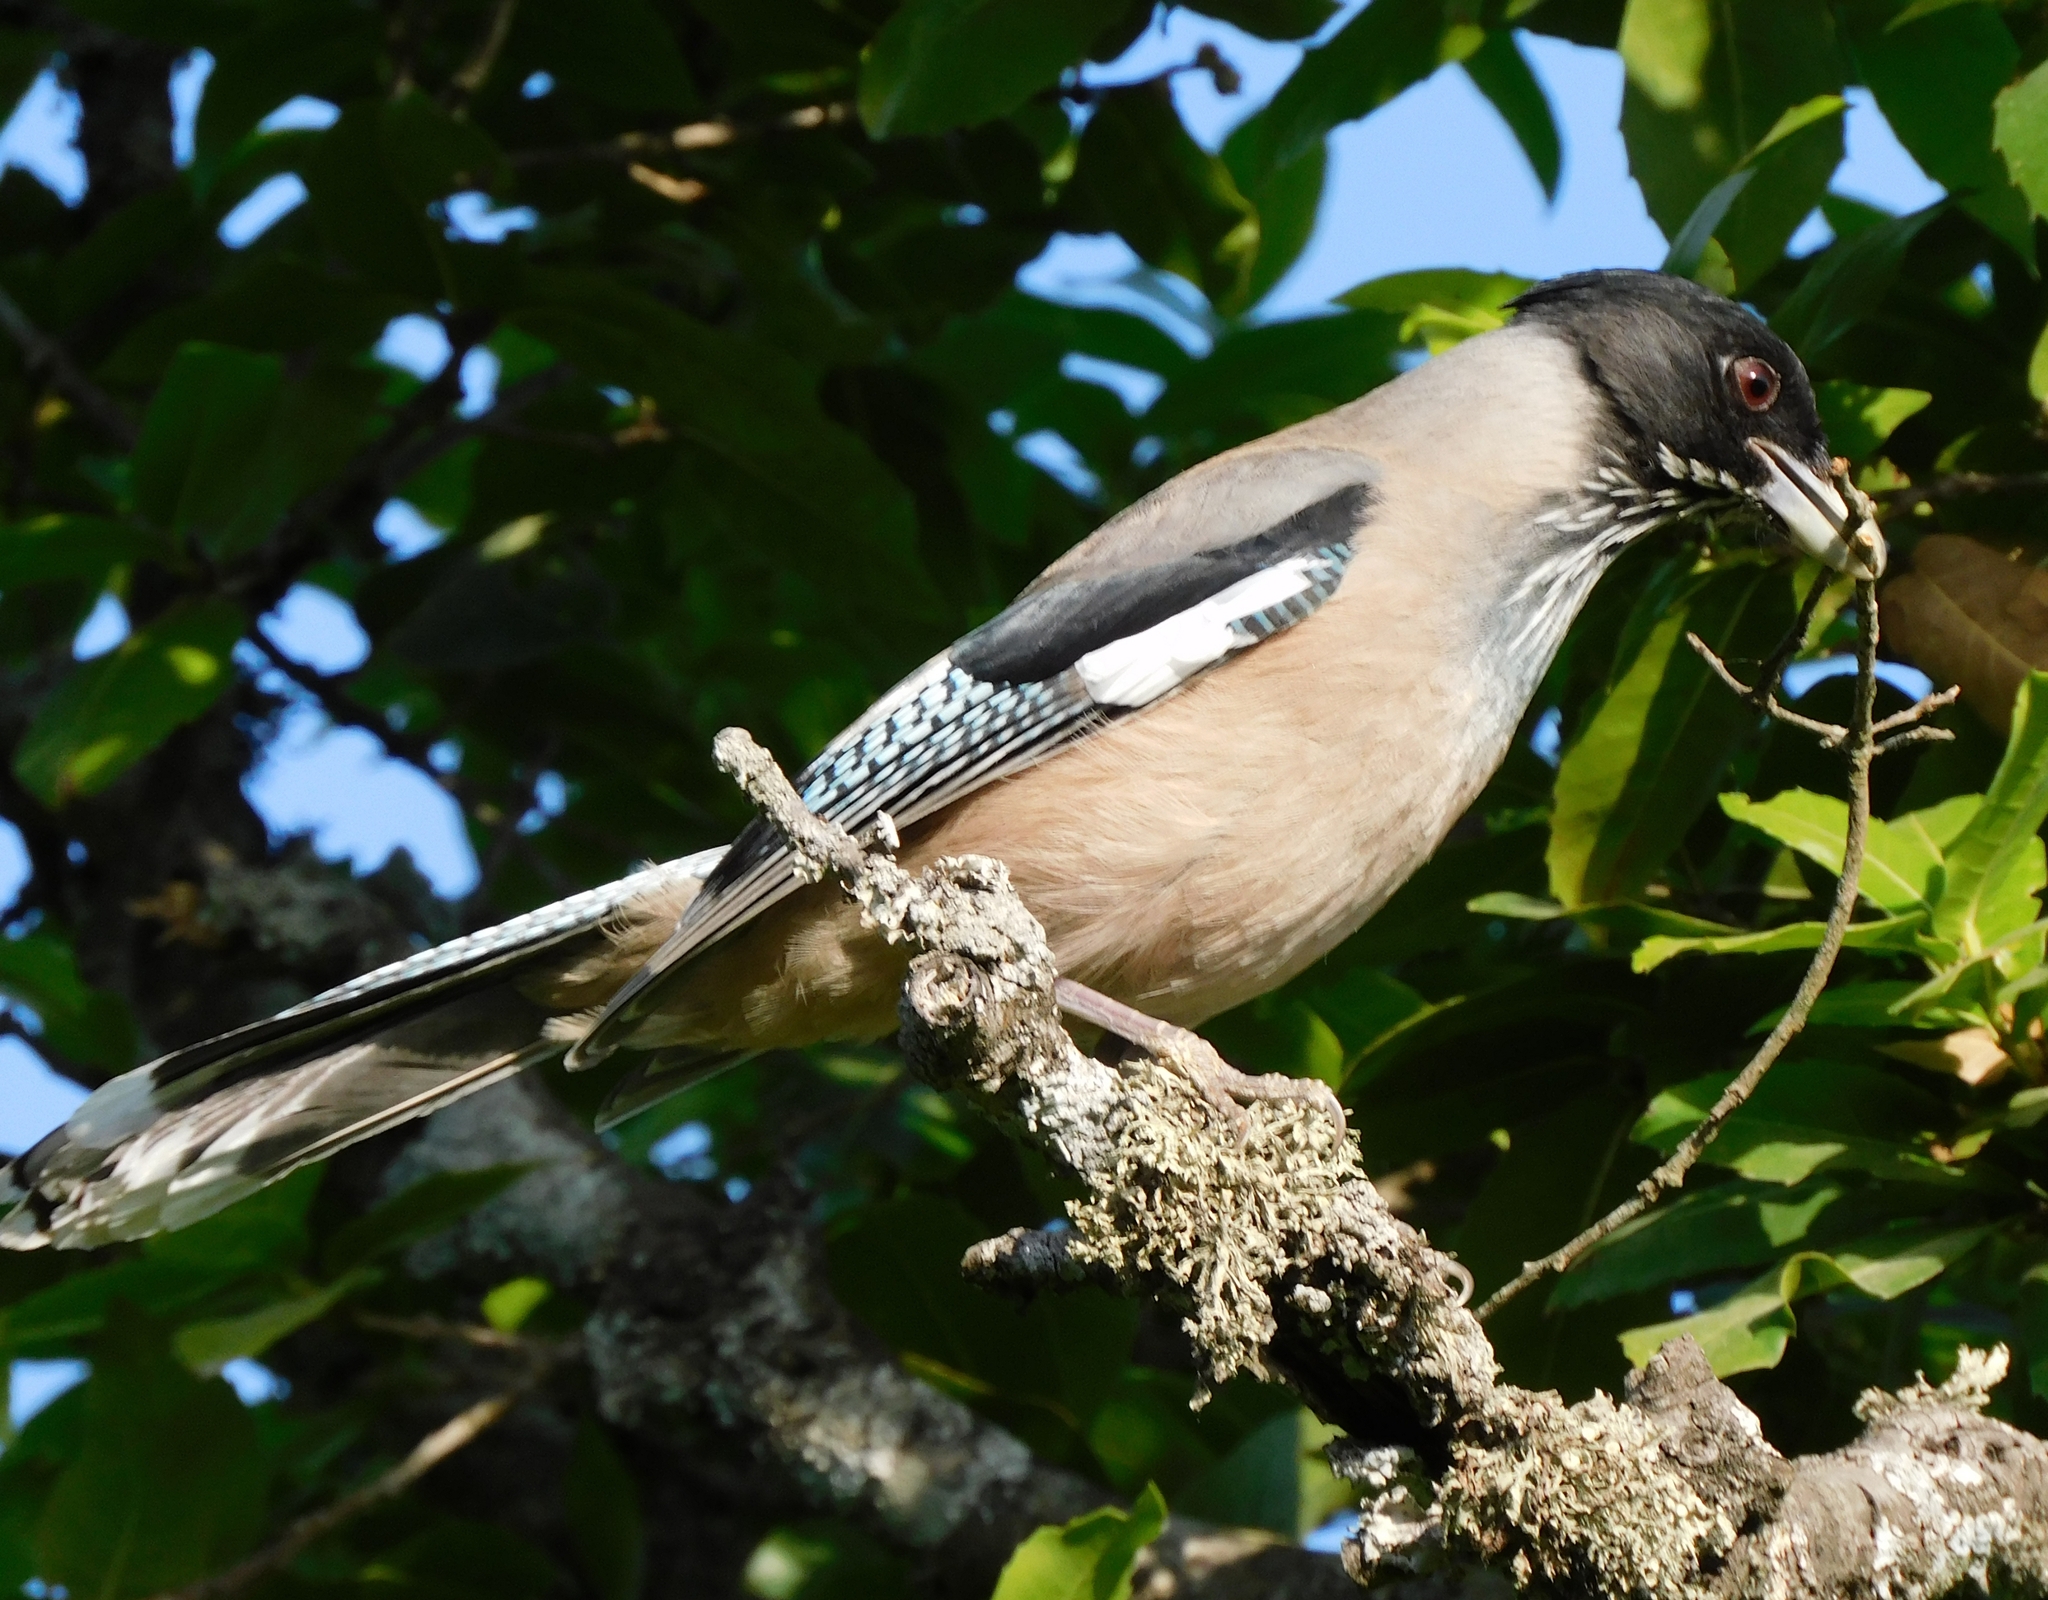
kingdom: Animalia
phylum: Chordata
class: Aves
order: Passeriformes
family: Corvidae
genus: Garrulus
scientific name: Garrulus lanceolatus
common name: Black-headed jay
